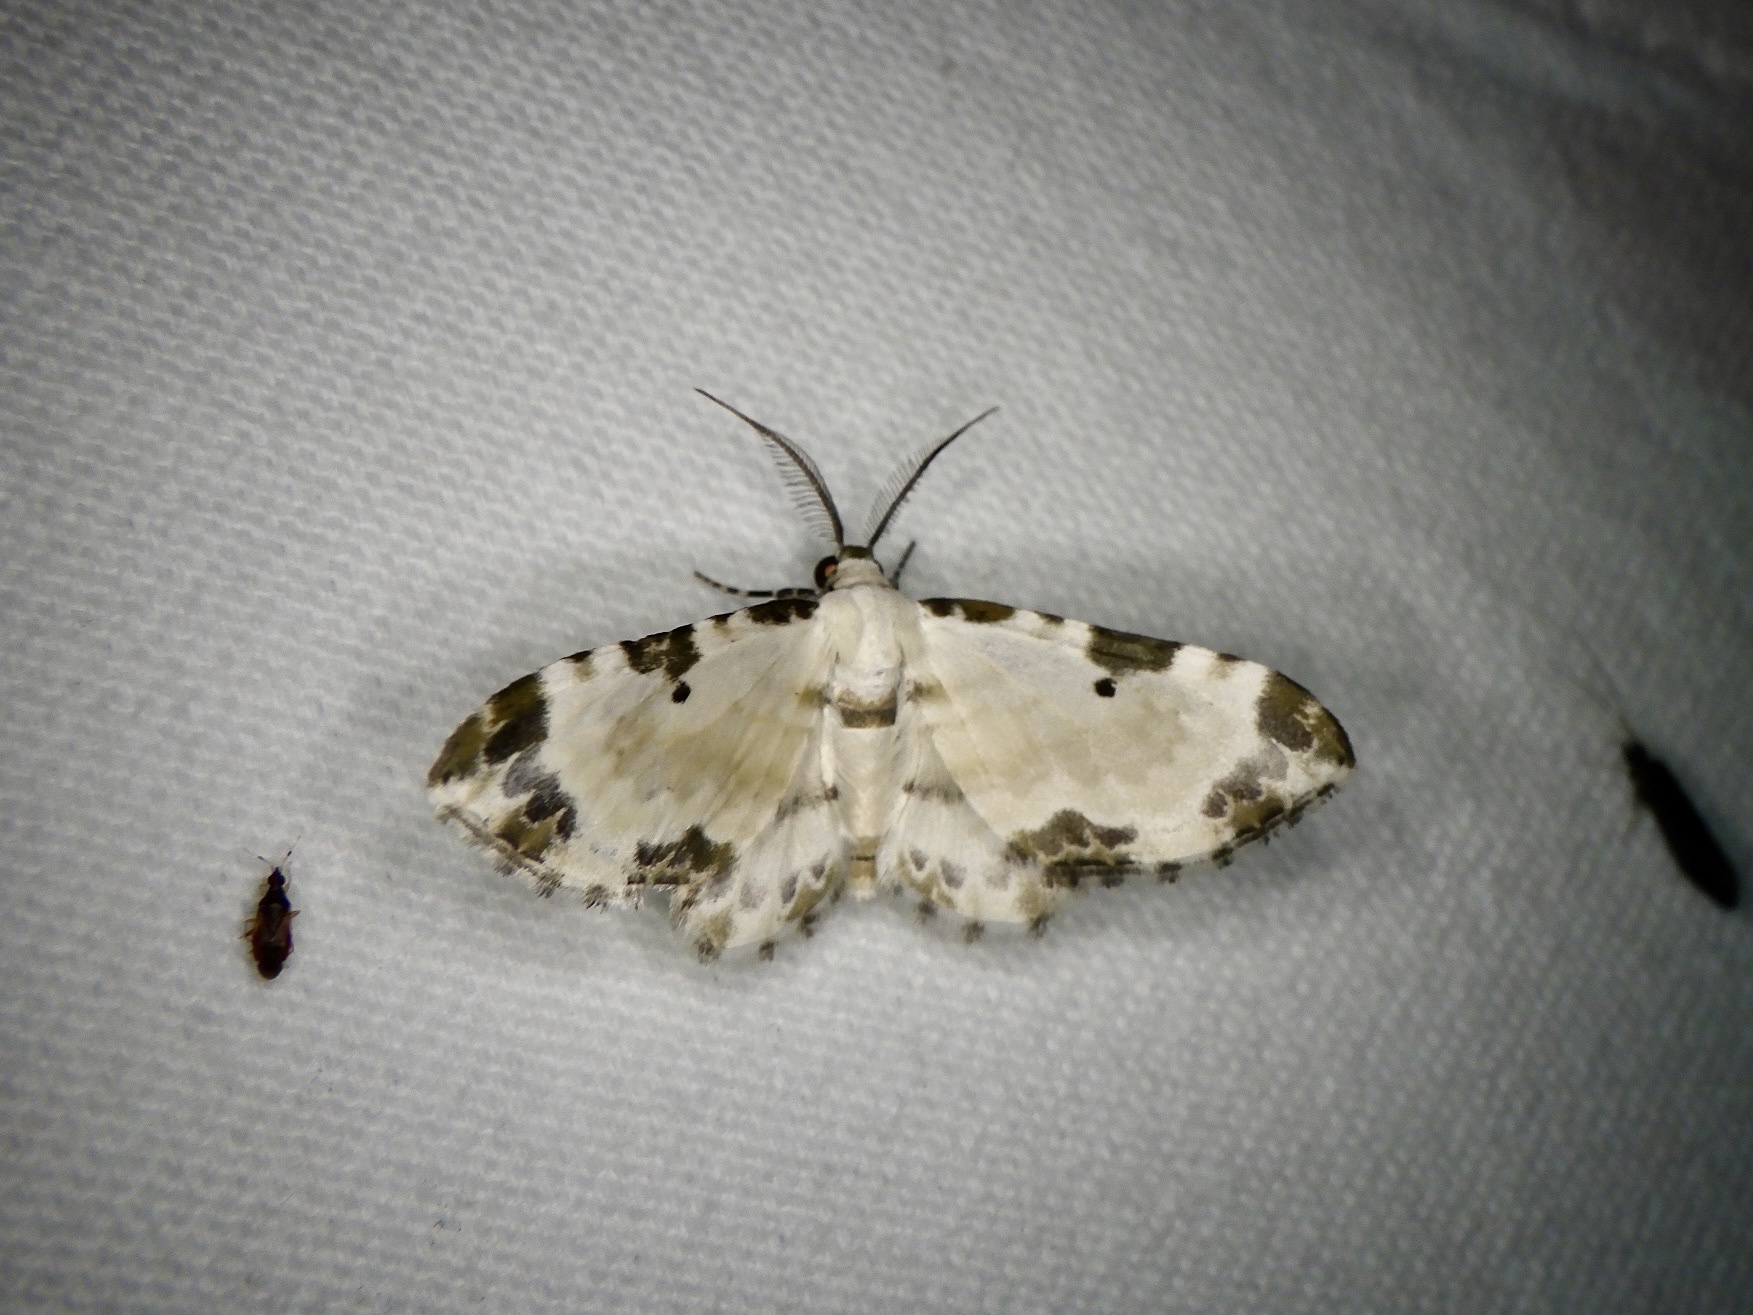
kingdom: Animalia
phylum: Arthropoda
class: Insecta
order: Lepidoptera
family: Geometridae
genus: Tyloptera
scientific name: Tyloptera bella
